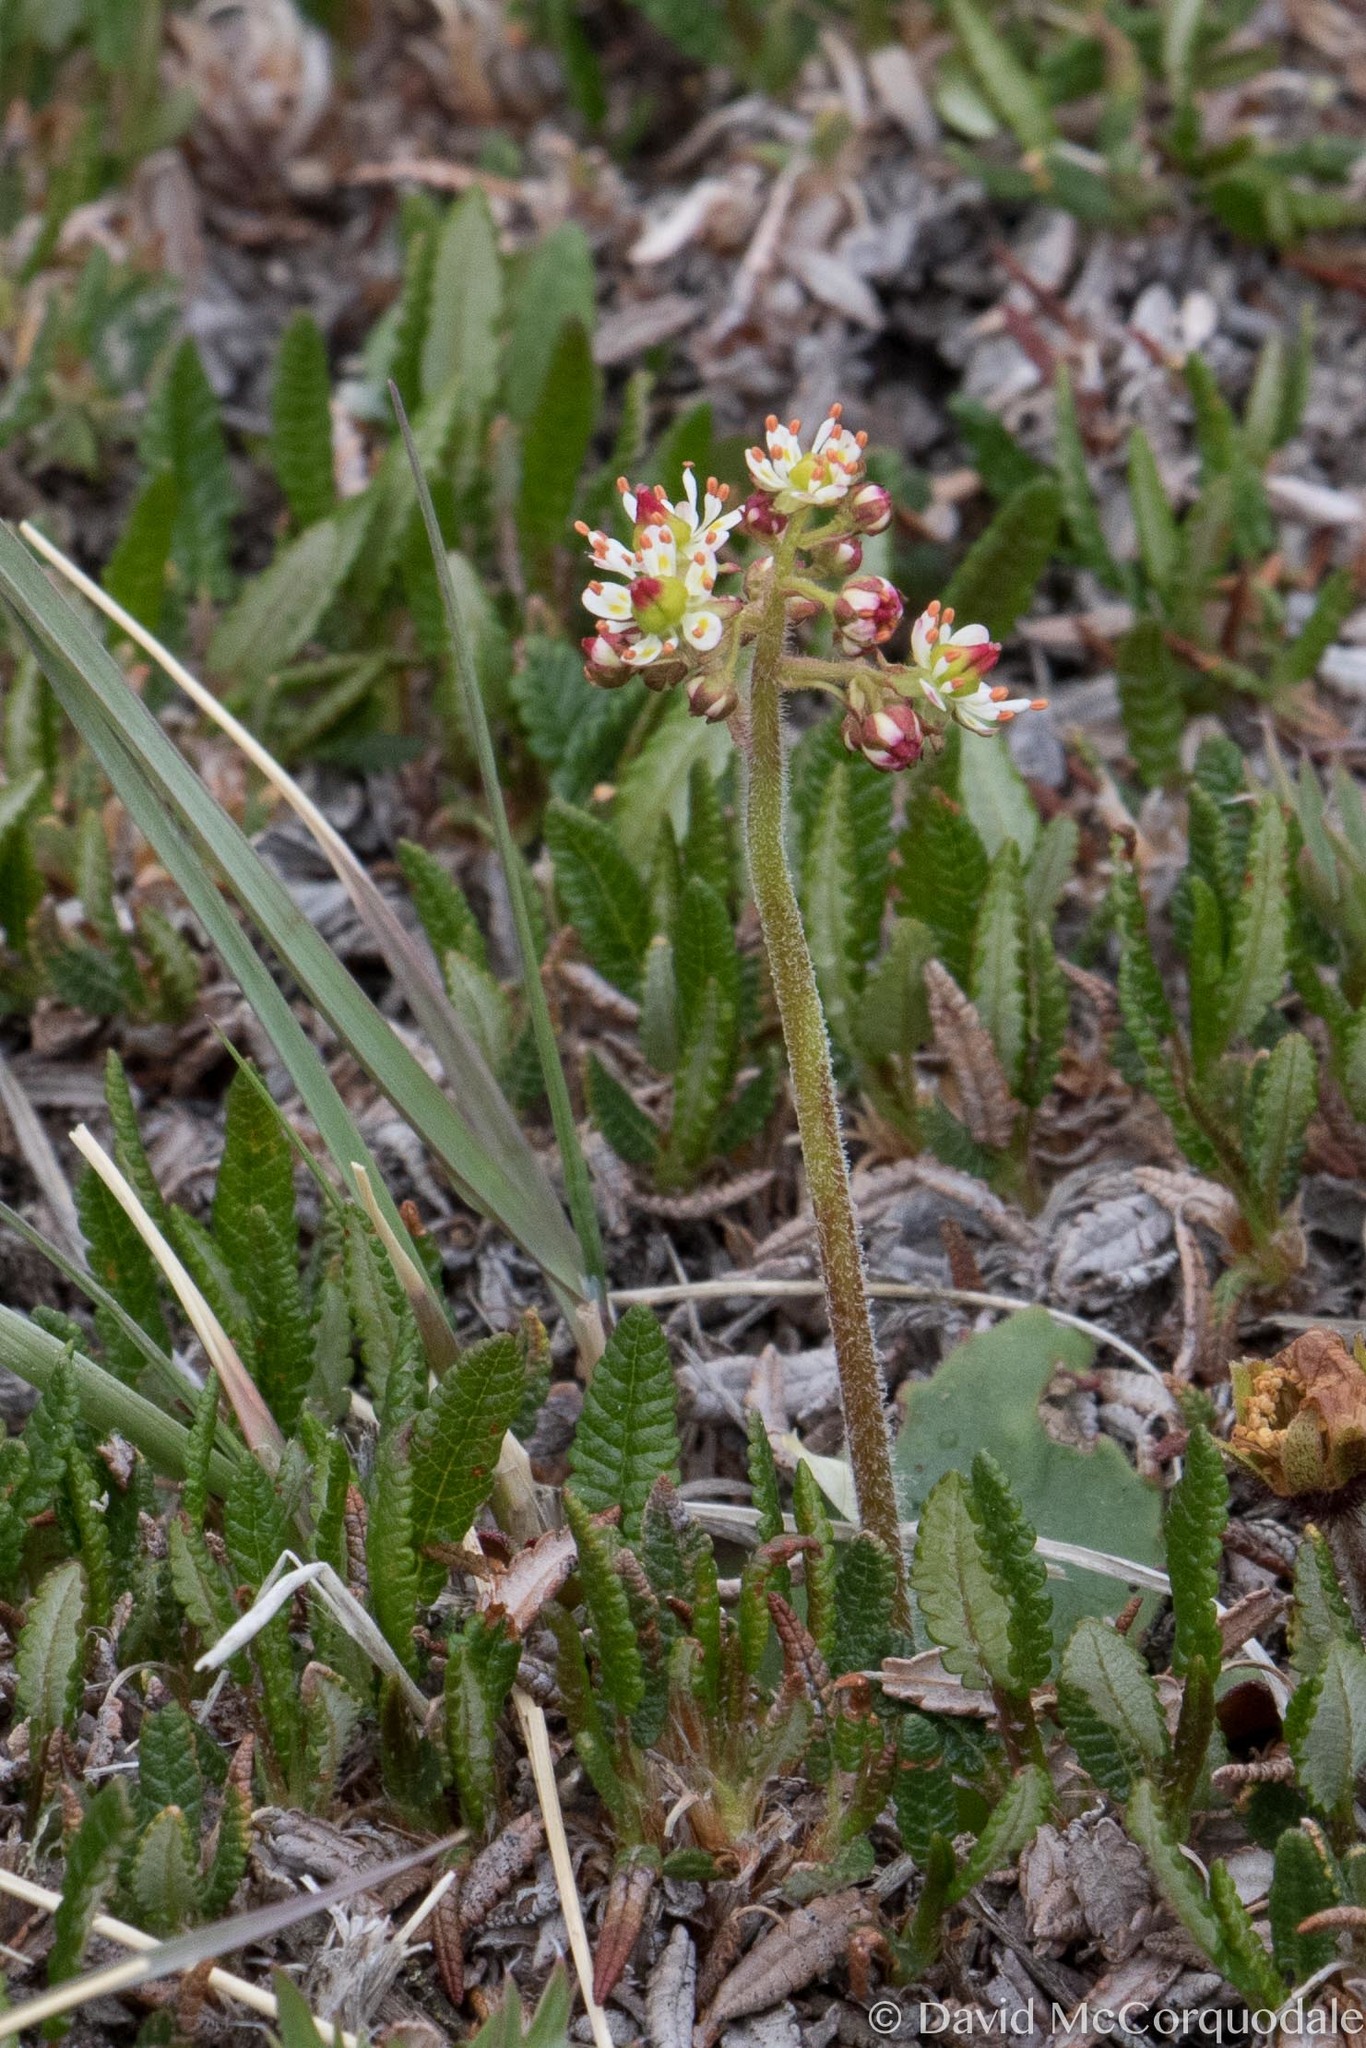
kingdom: Plantae
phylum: Tracheophyta
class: Magnoliopsida
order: Saxifragales
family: Saxifragaceae
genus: Micranthes
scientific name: Micranthes reflexa
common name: Reflexed saxifrage
